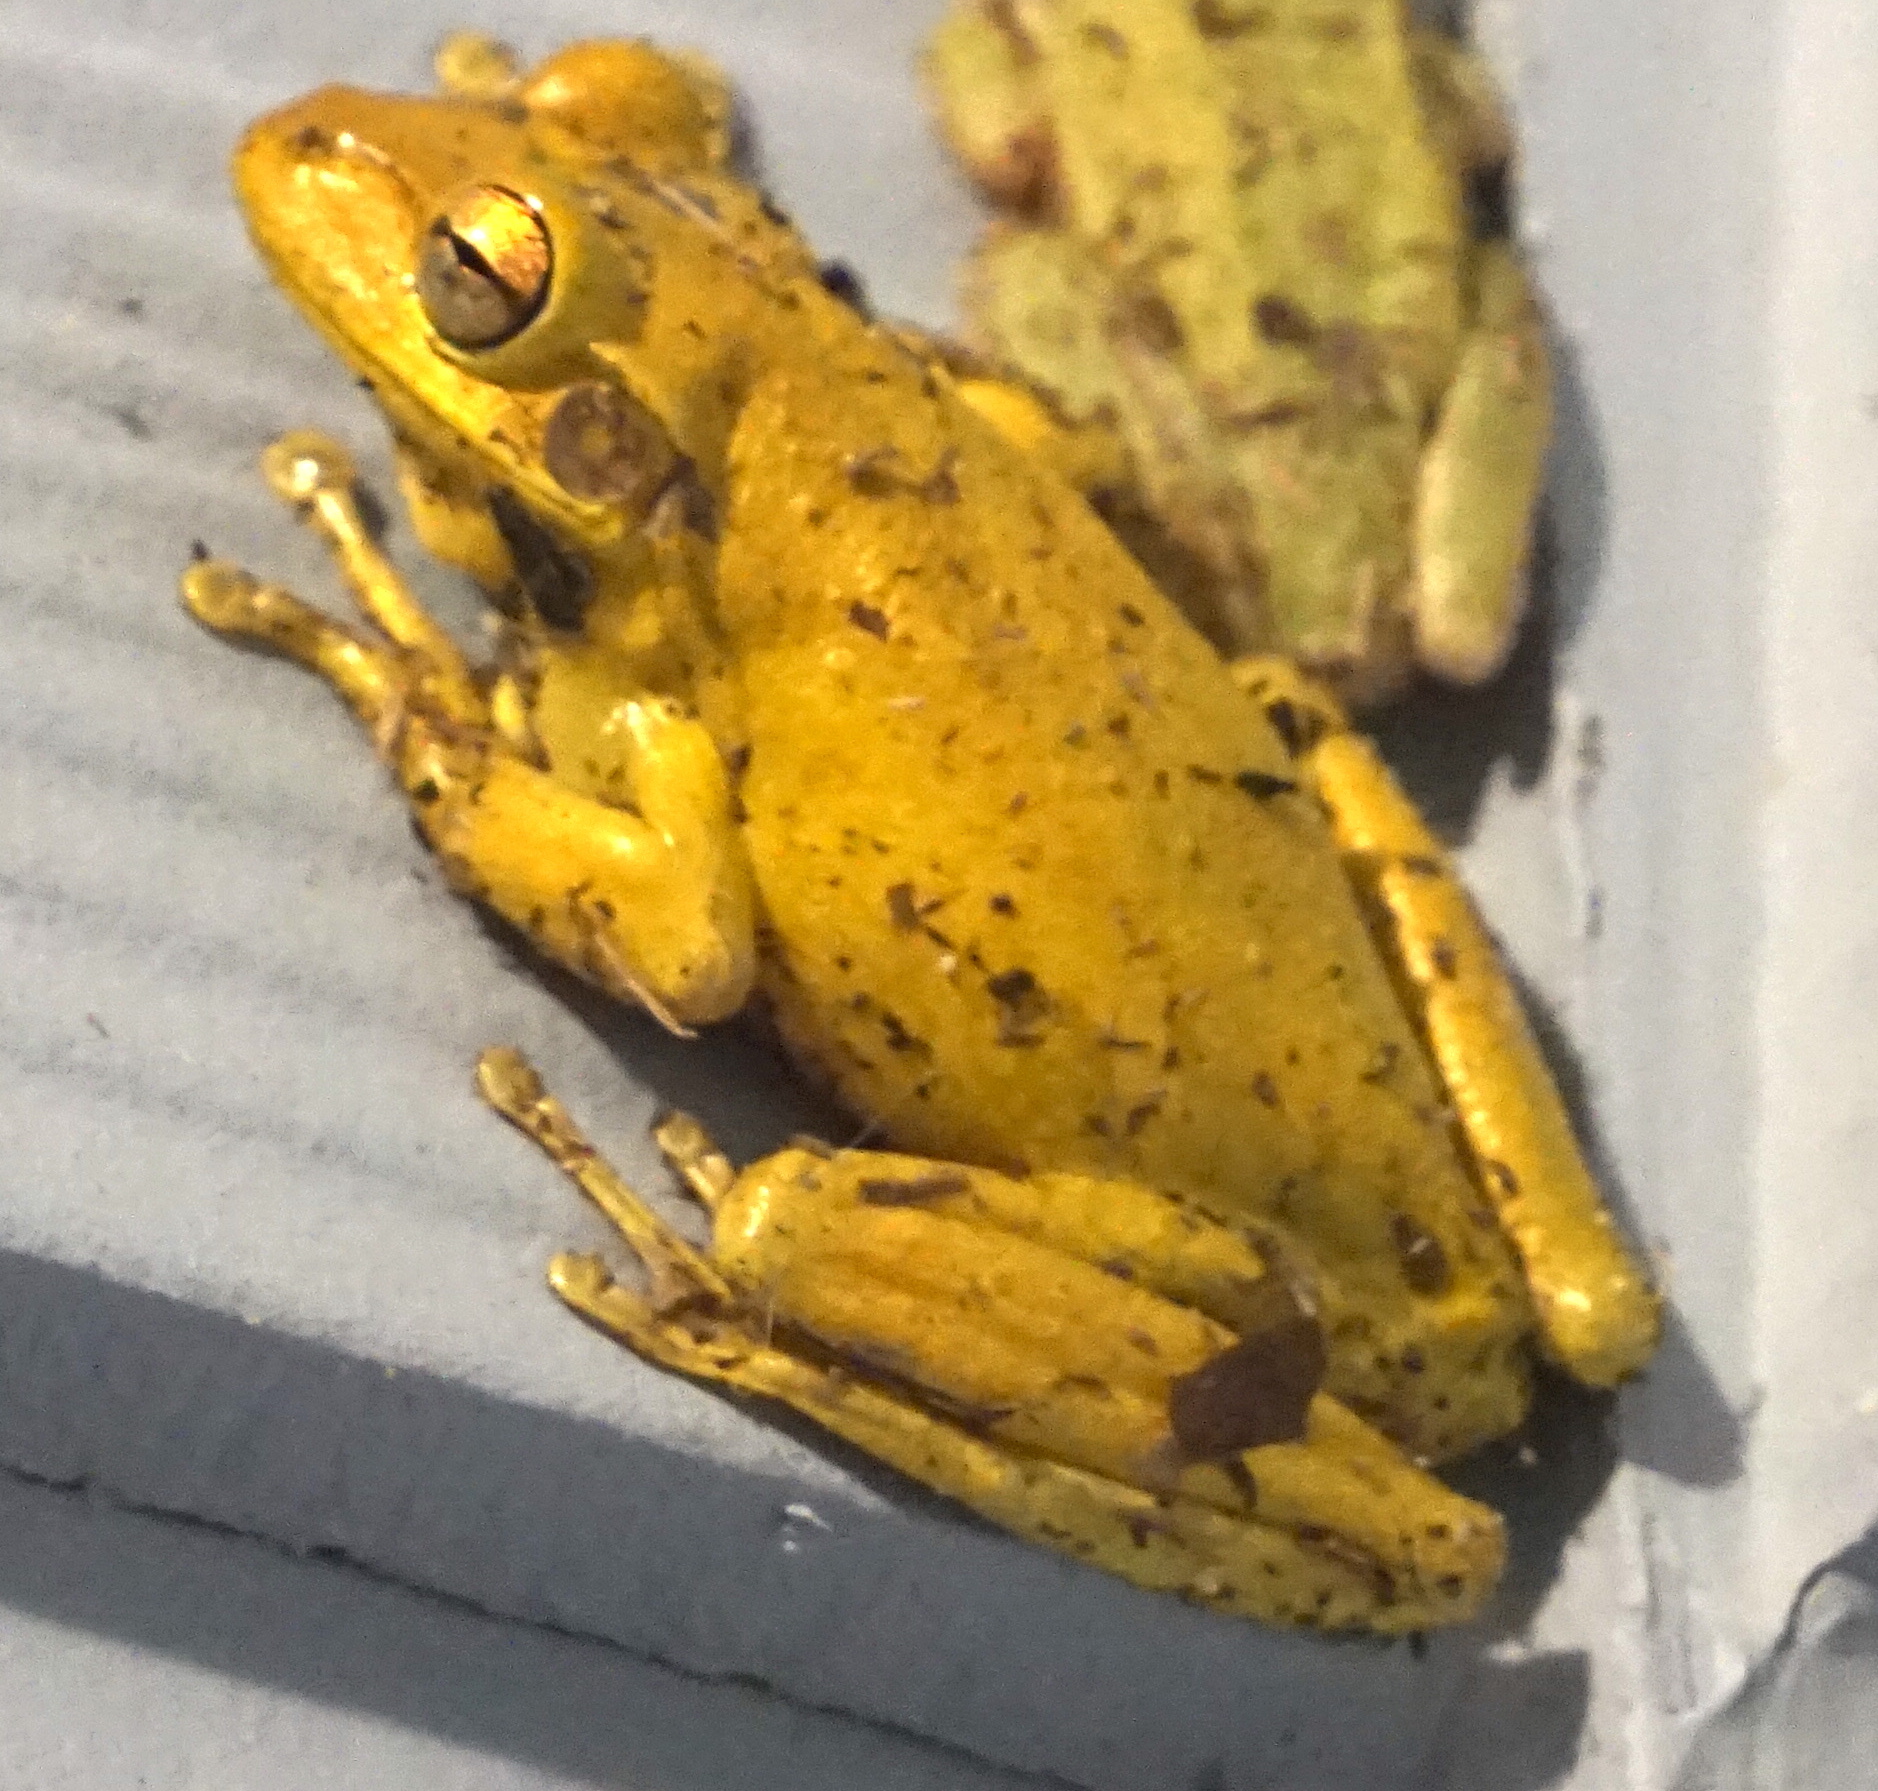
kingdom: Animalia
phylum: Chordata
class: Amphibia
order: Anura
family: Hylidae
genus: Osteopilus
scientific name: Osteopilus septentrionalis
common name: Cuban treefrog
